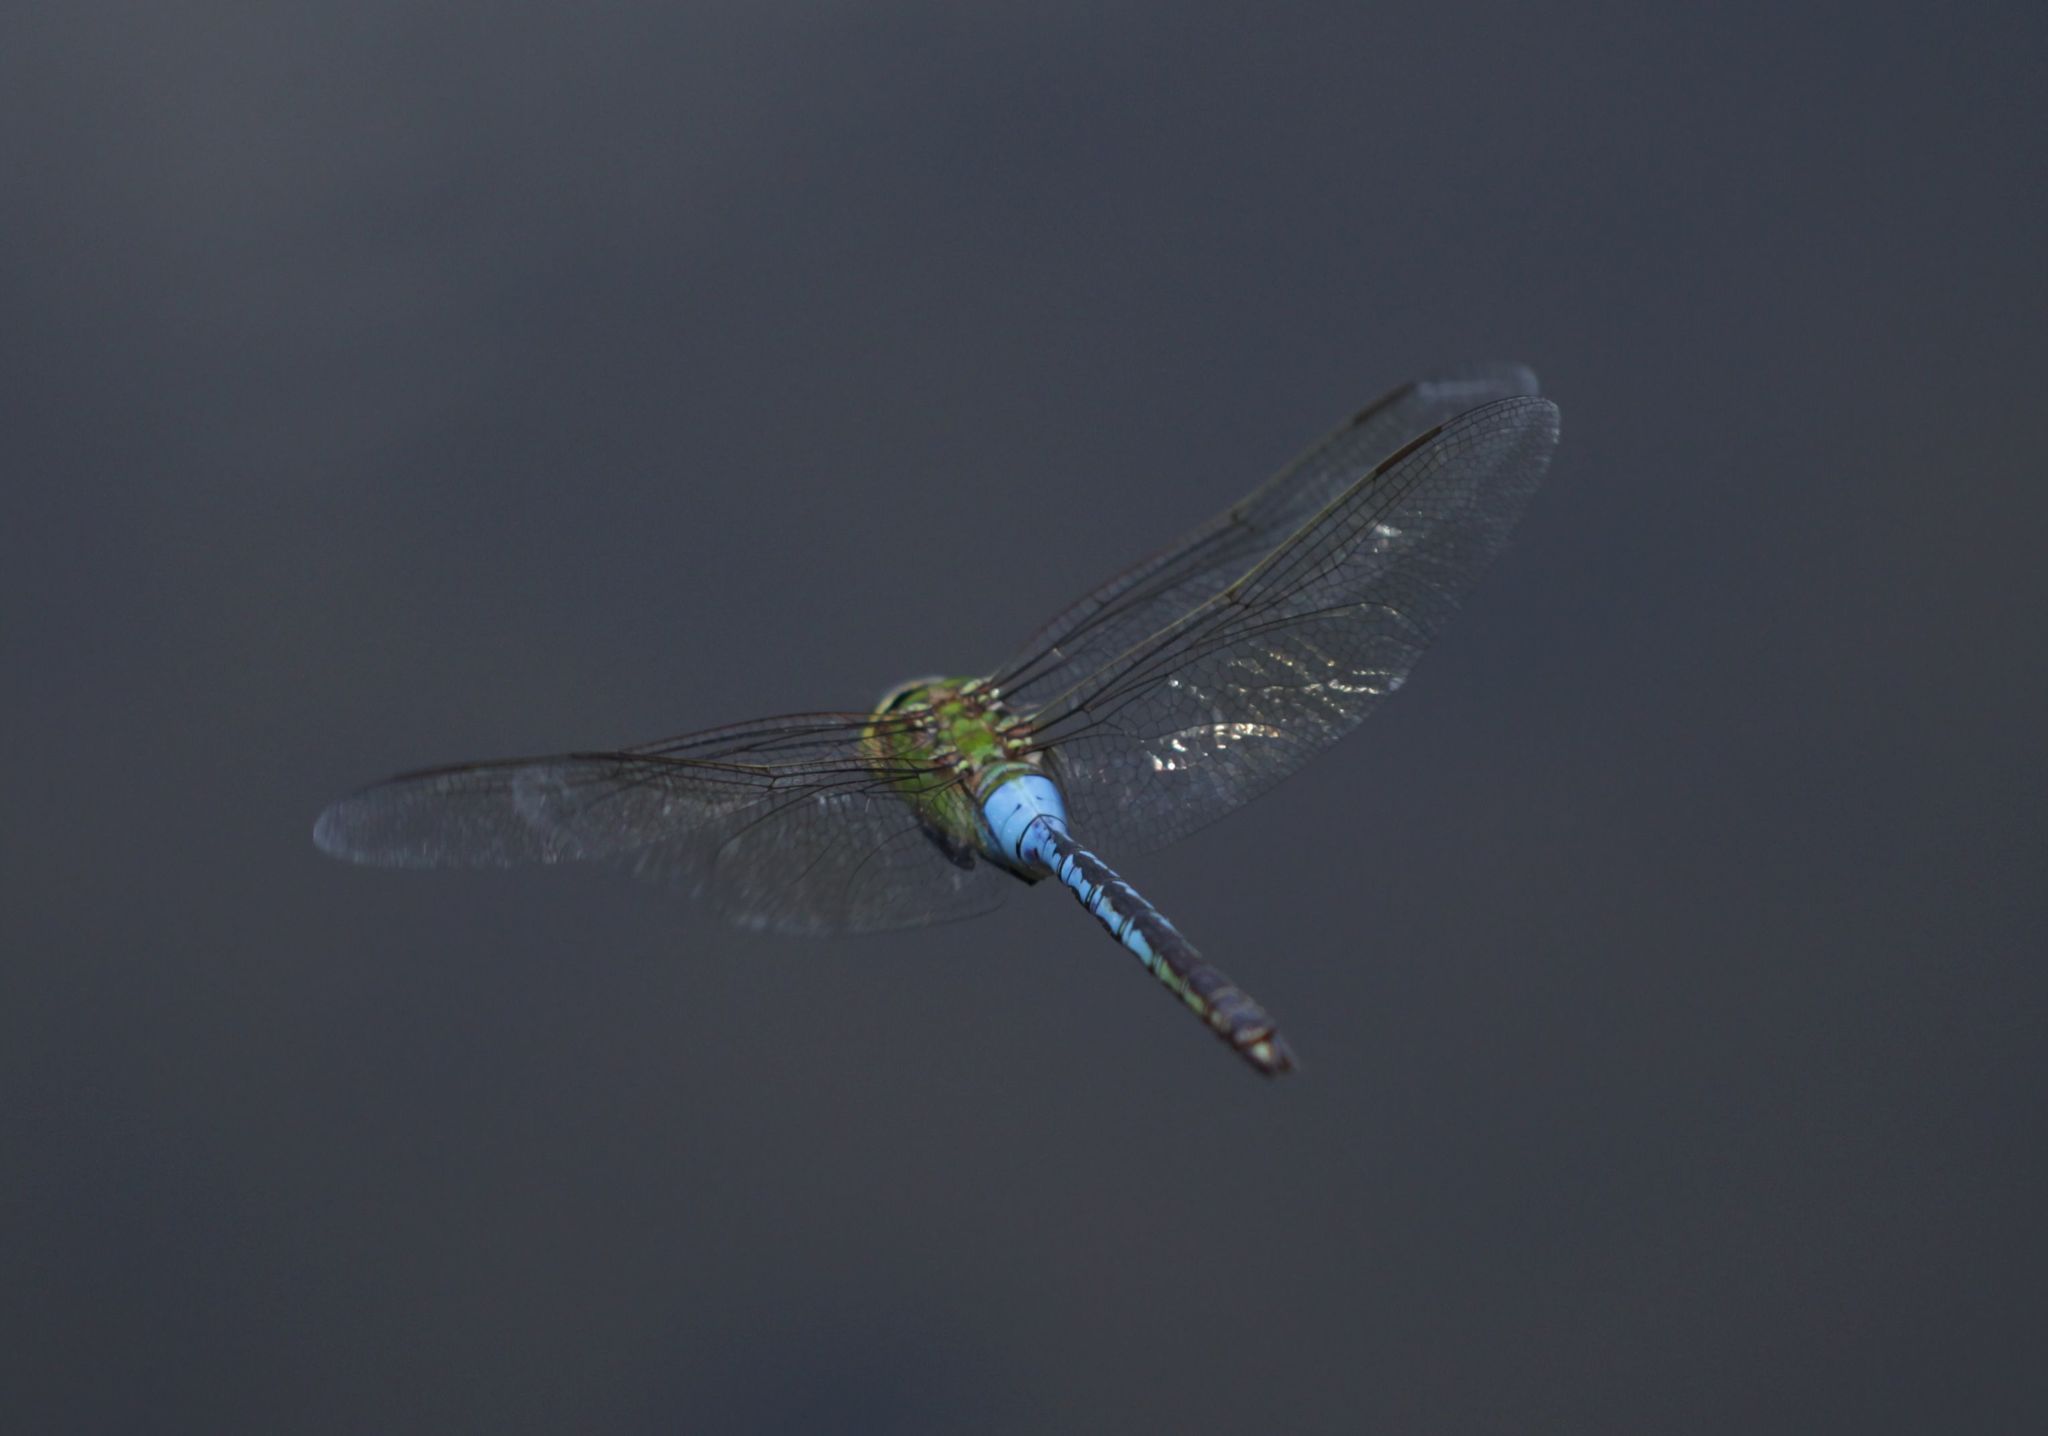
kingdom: Animalia
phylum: Arthropoda
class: Insecta
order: Odonata
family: Aeshnidae
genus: Anax
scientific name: Anax junius
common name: Common green darner
